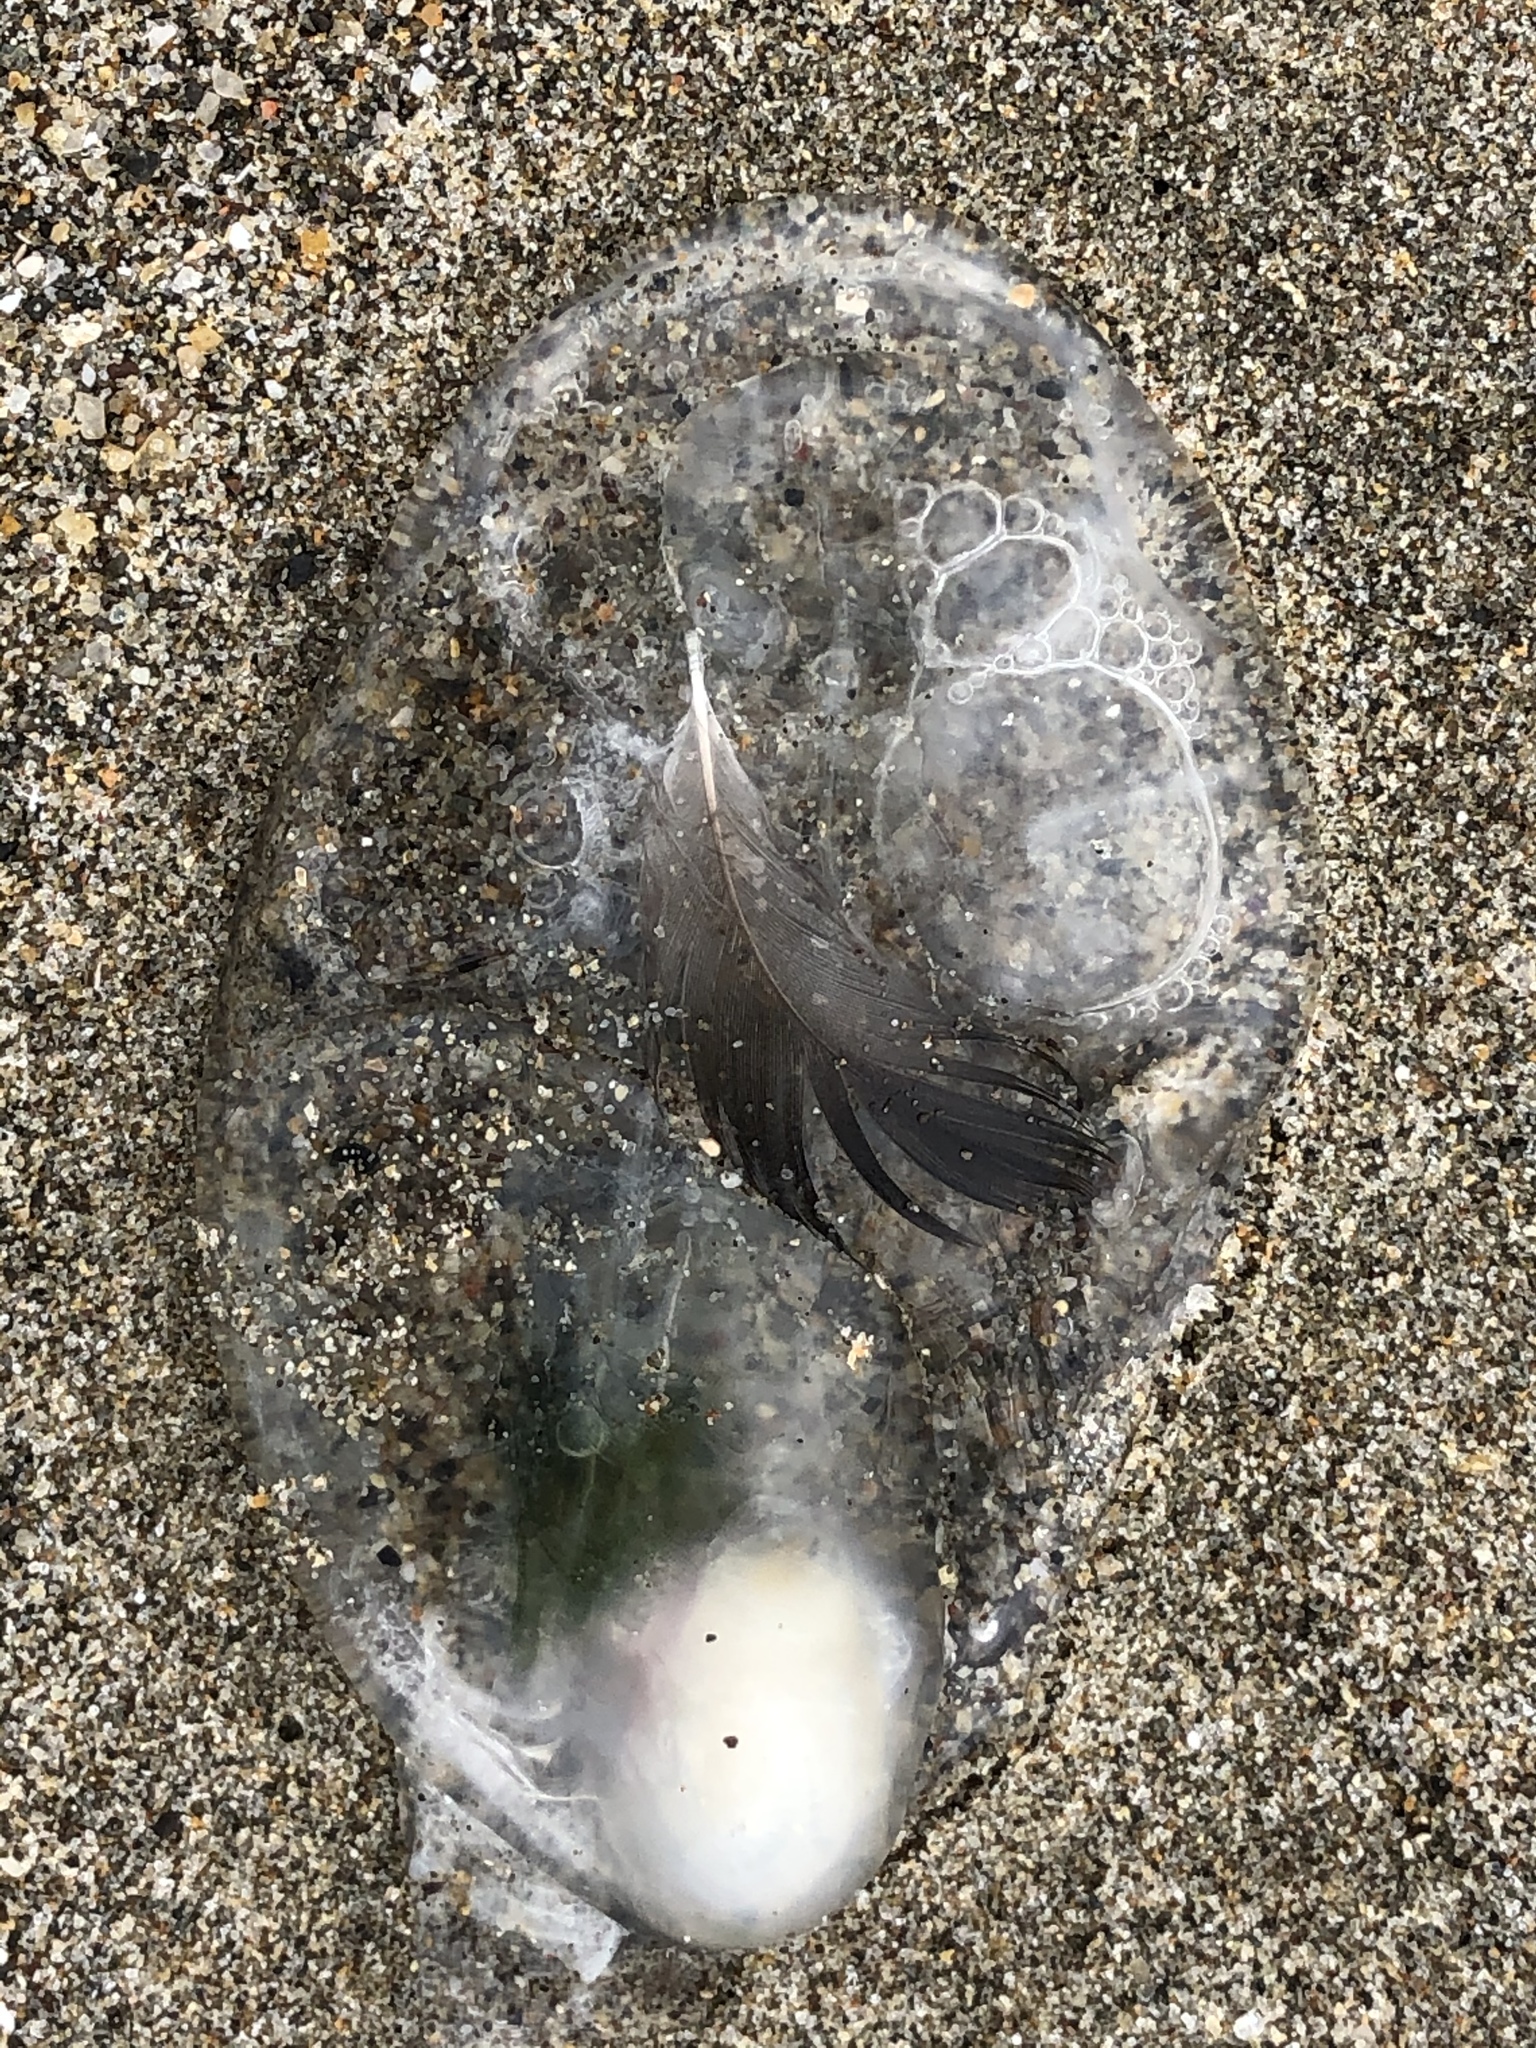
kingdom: Animalia
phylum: Chordata
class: Thaliacea
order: Salpida
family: Salpidae
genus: Thetys
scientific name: Thetys vagina
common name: Vagina salp
